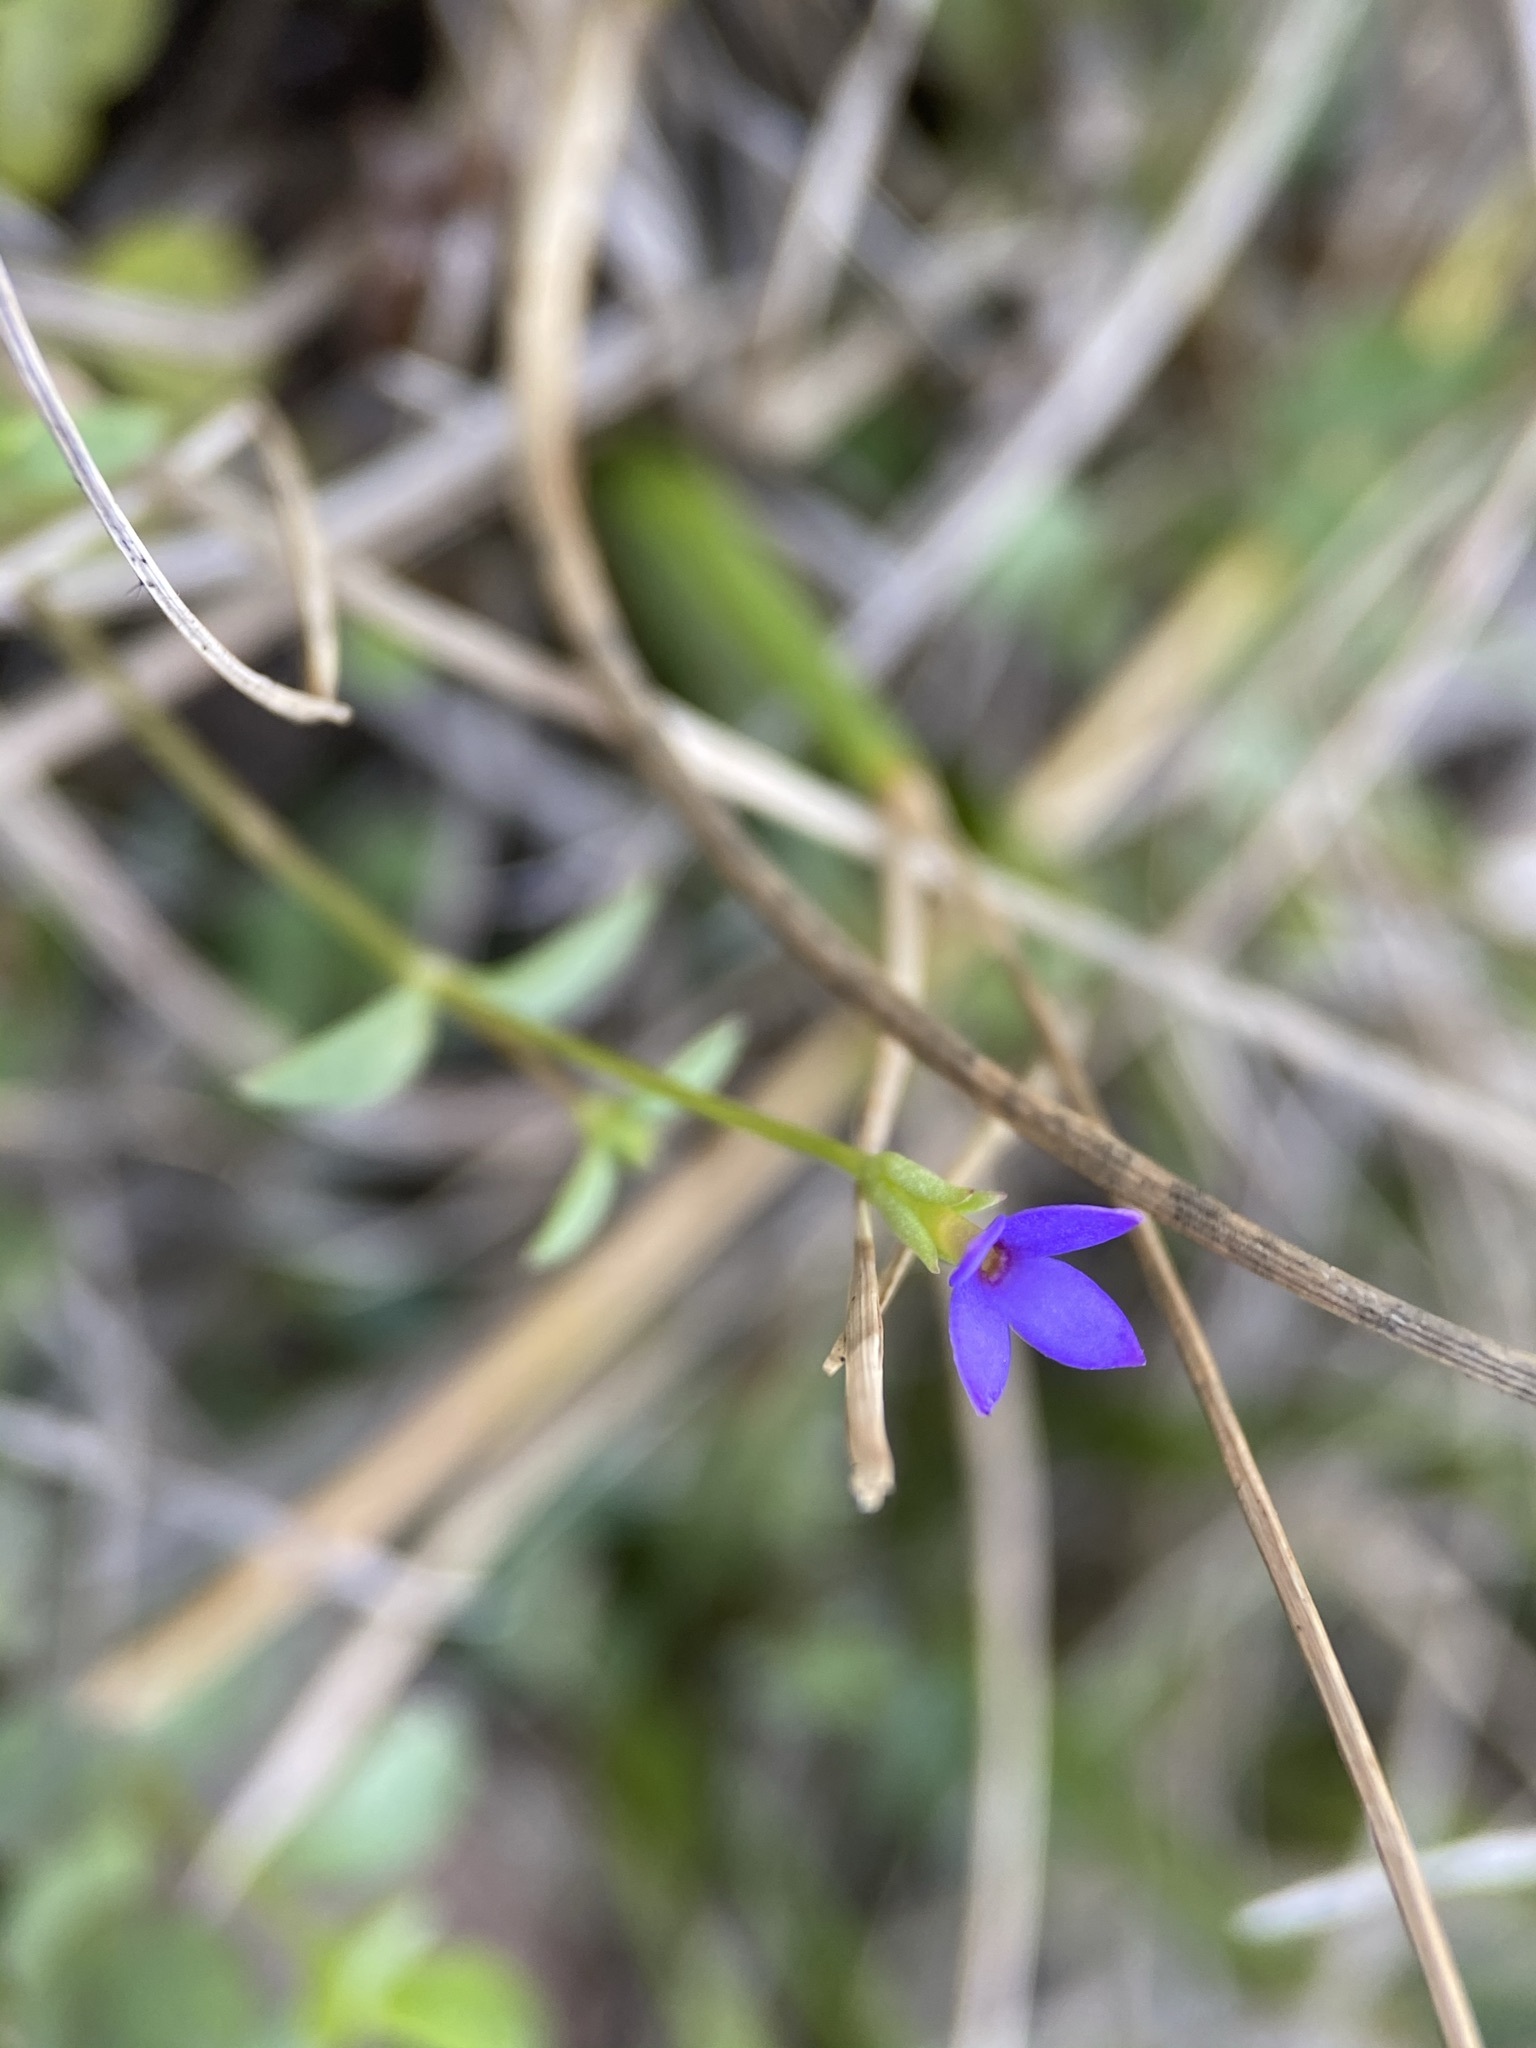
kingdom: Plantae
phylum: Tracheophyta
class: Magnoliopsida
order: Gentianales
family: Rubiaceae
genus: Houstonia
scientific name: Houstonia pusilla
